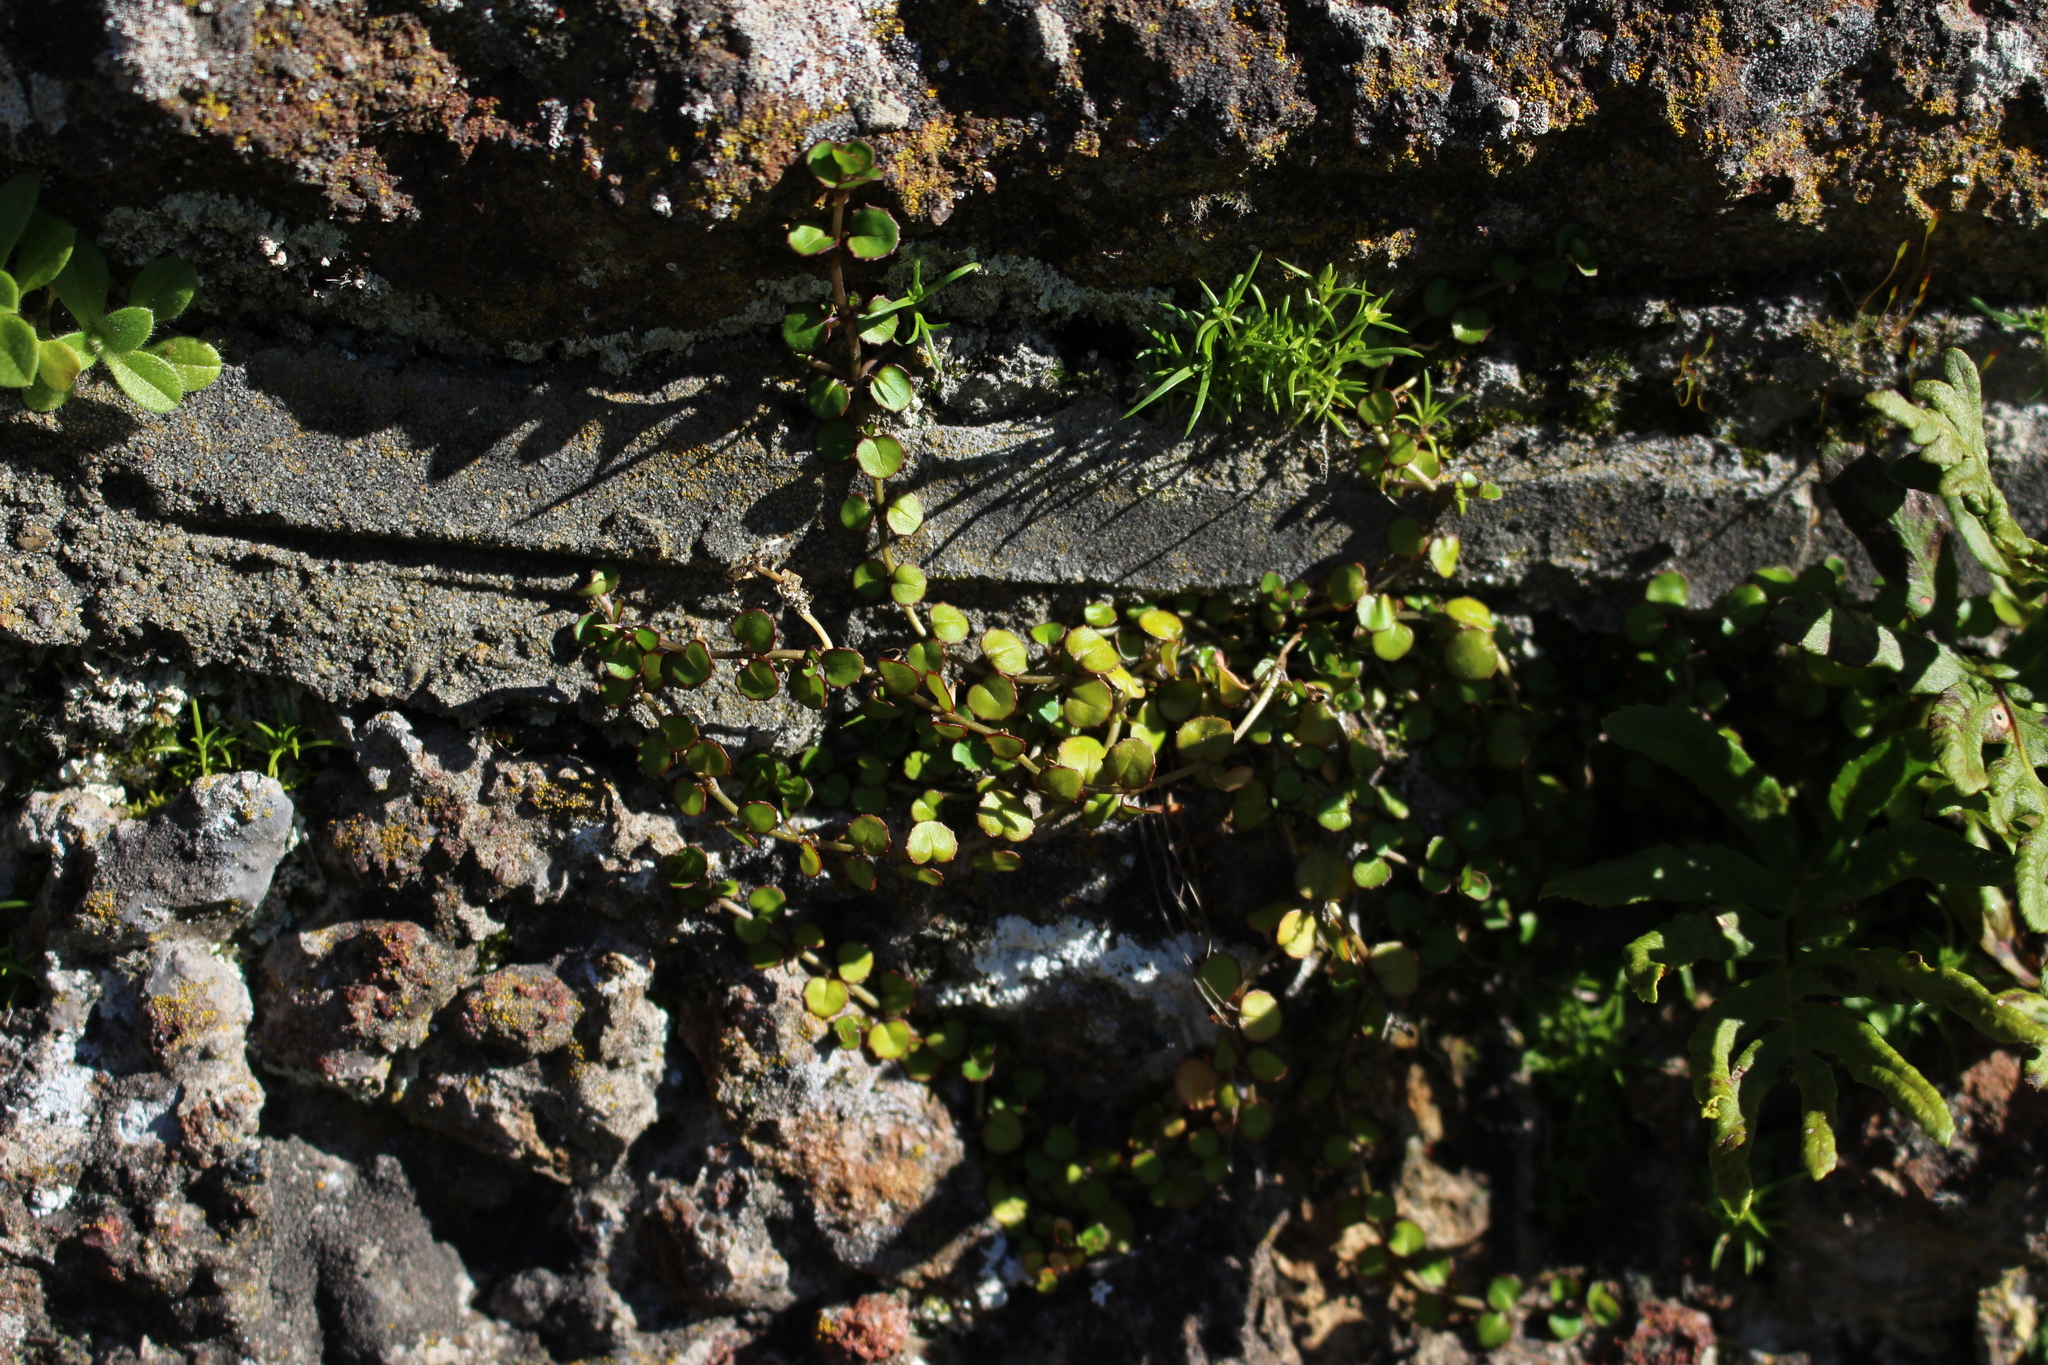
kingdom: Plantae
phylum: Tracheophyta
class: Magnoliopsida
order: Myrtales
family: Onagraceae
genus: Epilobium
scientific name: Epilobium nummularifolium
